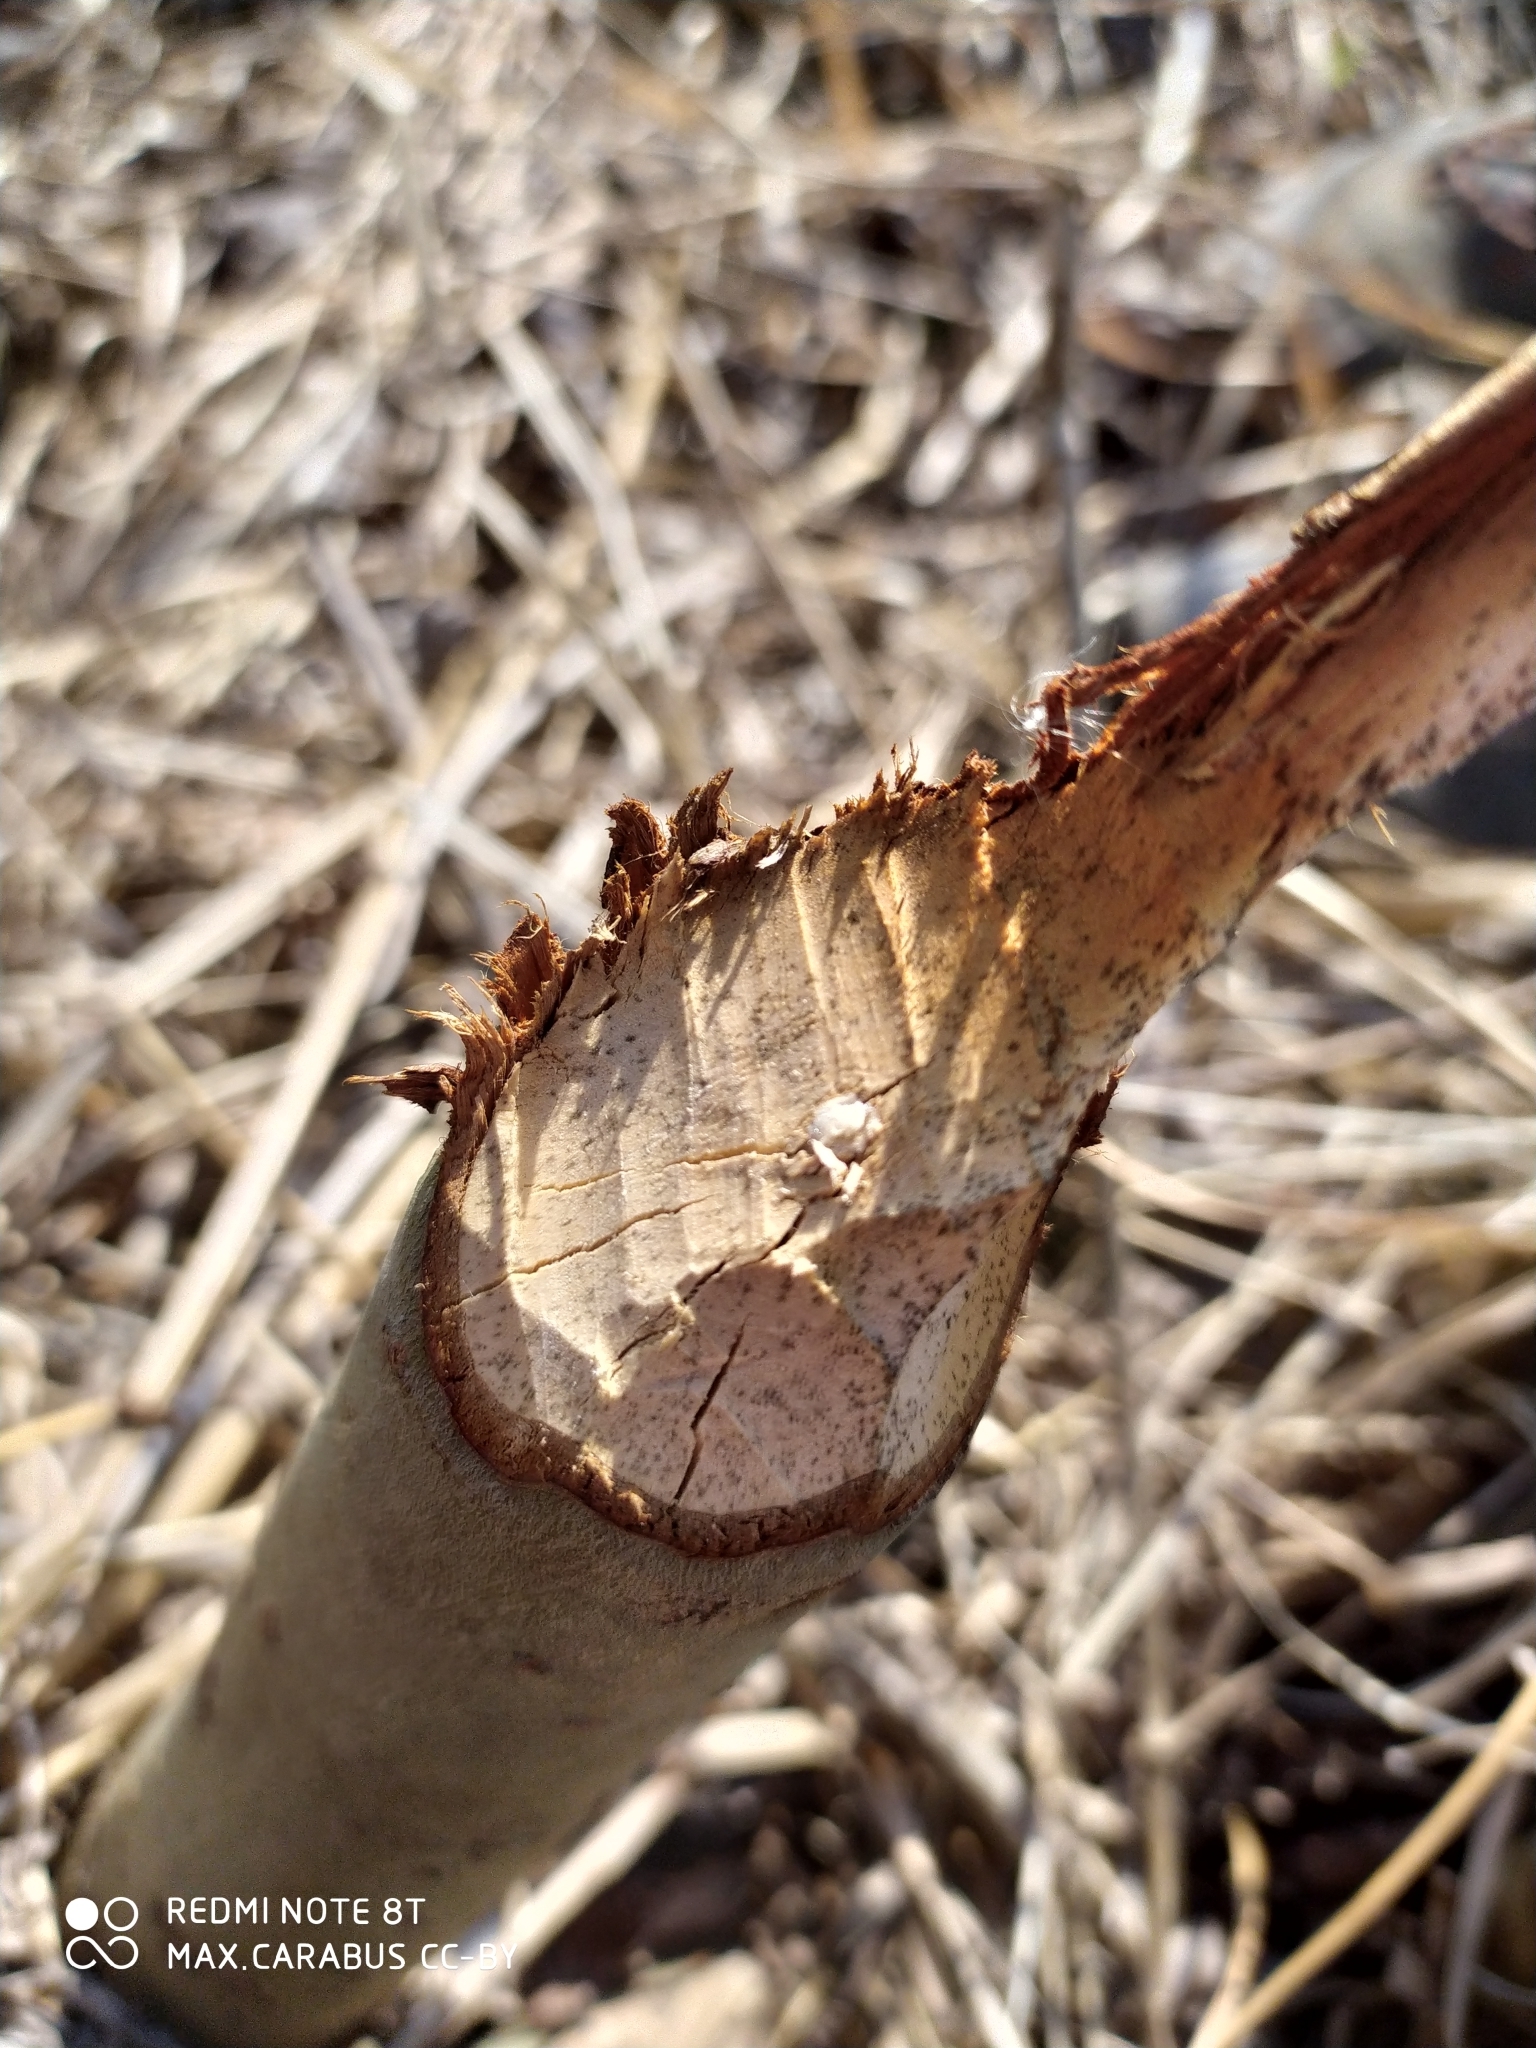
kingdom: Animalia
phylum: Chordata
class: Mammalia
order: Rodentia
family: Castoridae
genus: Castor
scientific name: Castor fiber
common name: Eurasian beaver
